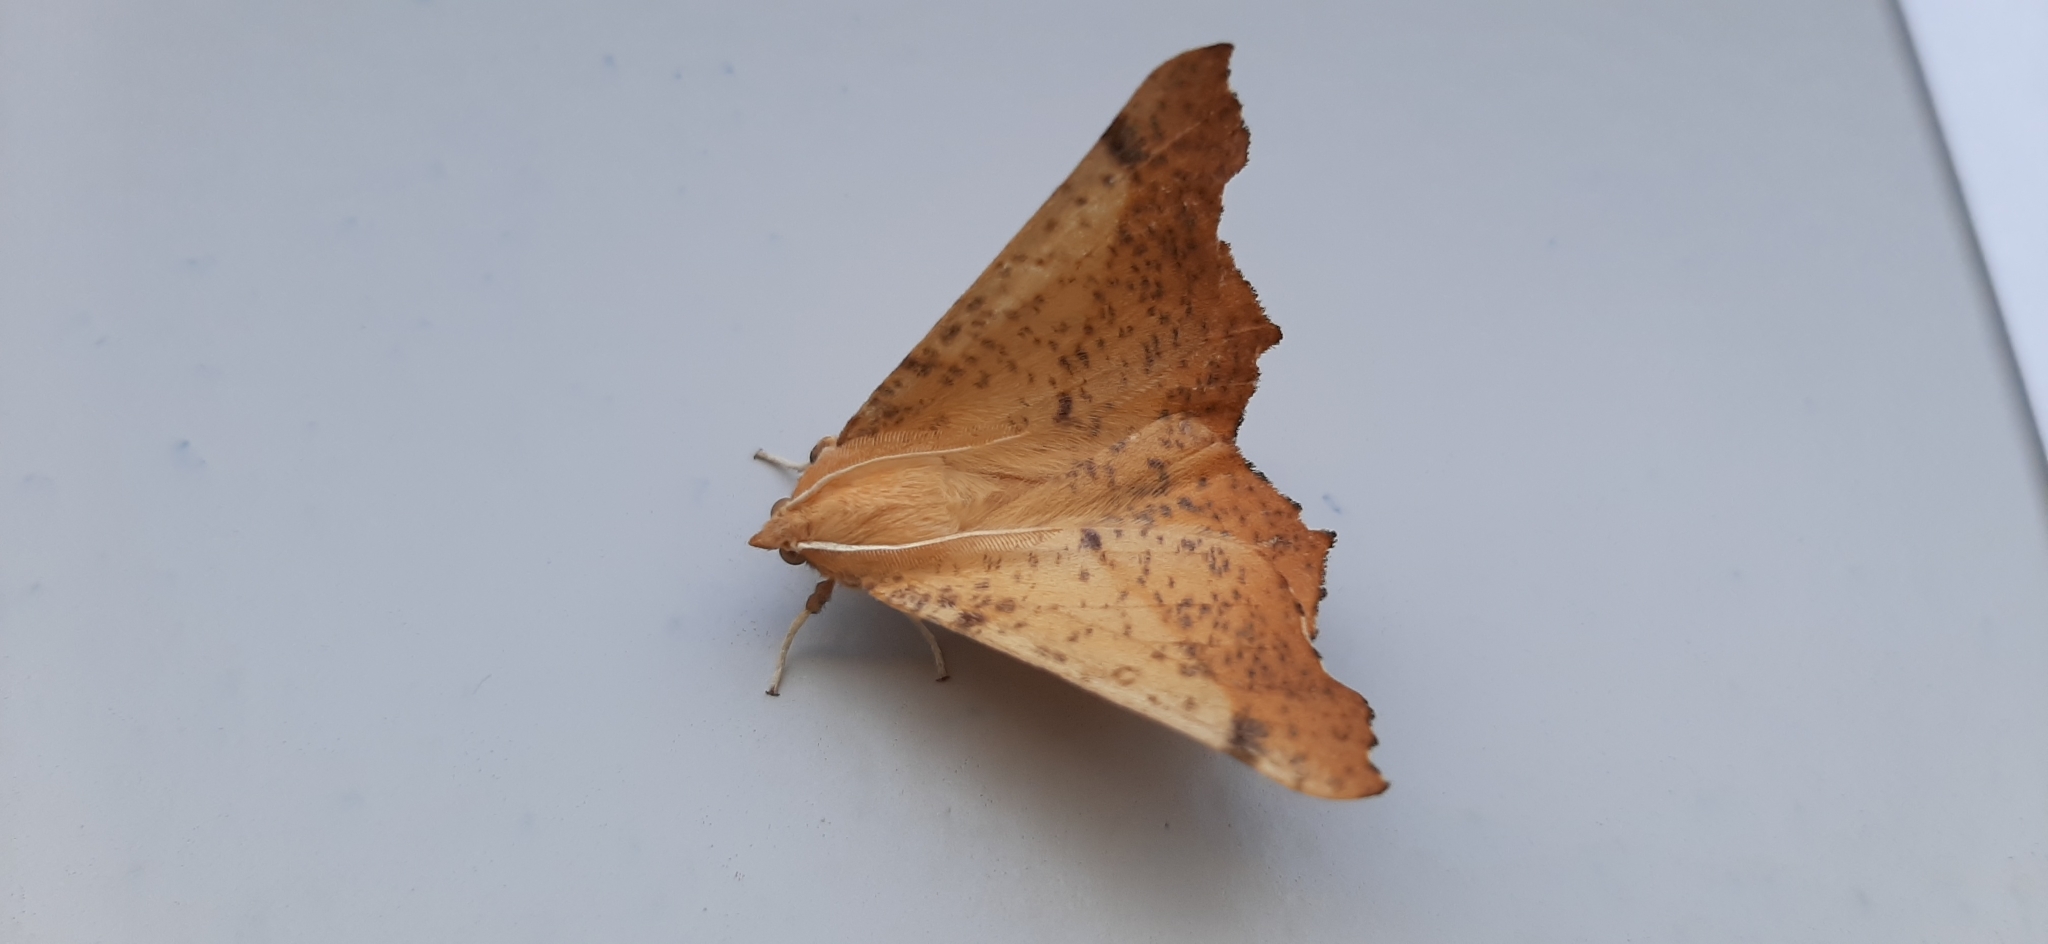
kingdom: Animalia
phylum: Arthropoda
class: Insecta
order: Lepidoptera
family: Geometridae
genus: Ennomos
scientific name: Ennomos magnaria
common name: Maple spanworm
